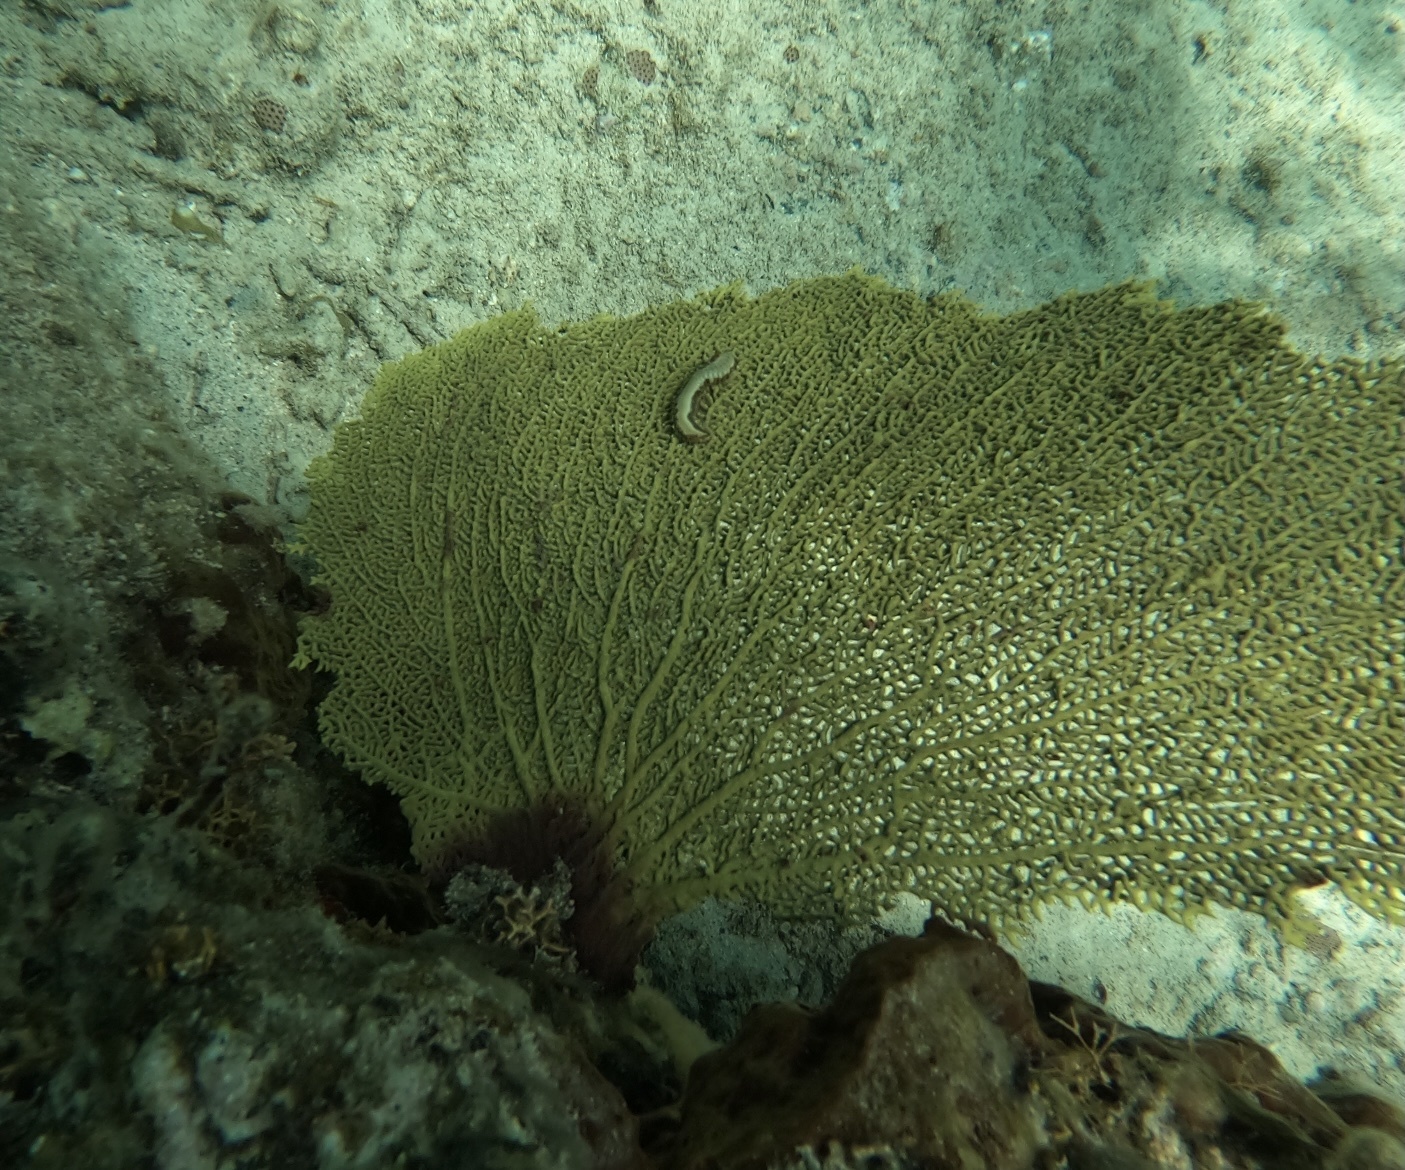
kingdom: Animalia
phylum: Annelida
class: Polychaeta
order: Amphinomida
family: Amphinomidae
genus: Hermodice
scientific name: Hermodice carunculata
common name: Bearded fireworm
